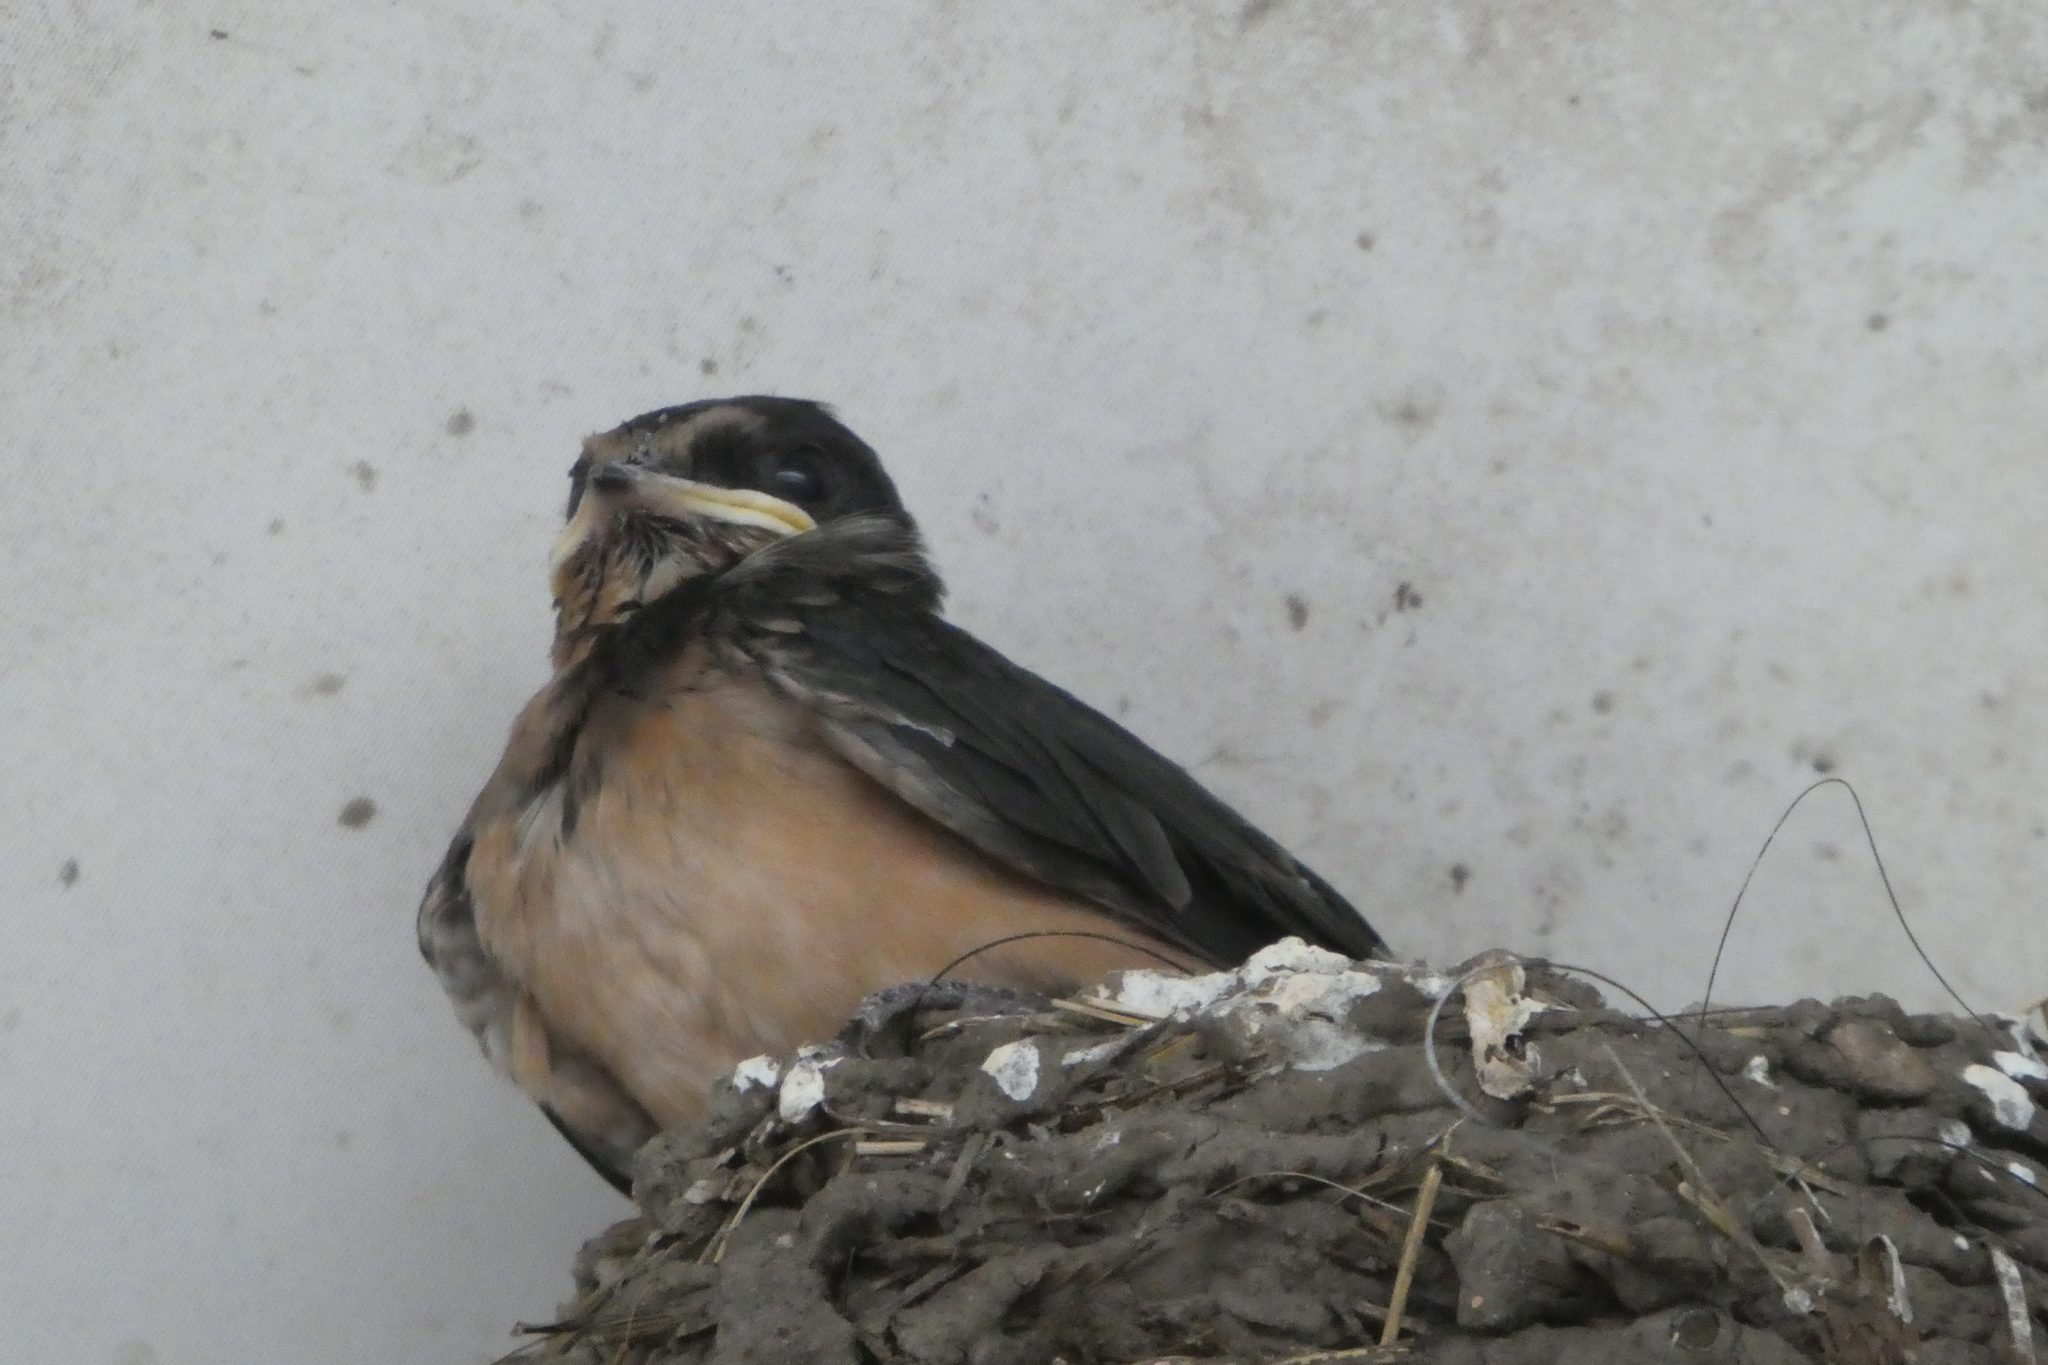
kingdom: Animalia
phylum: Chordata
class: Aves
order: Passeriformes
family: Hirundinidae
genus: Hirundo
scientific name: Hirundo rustica
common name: Barn swallow
